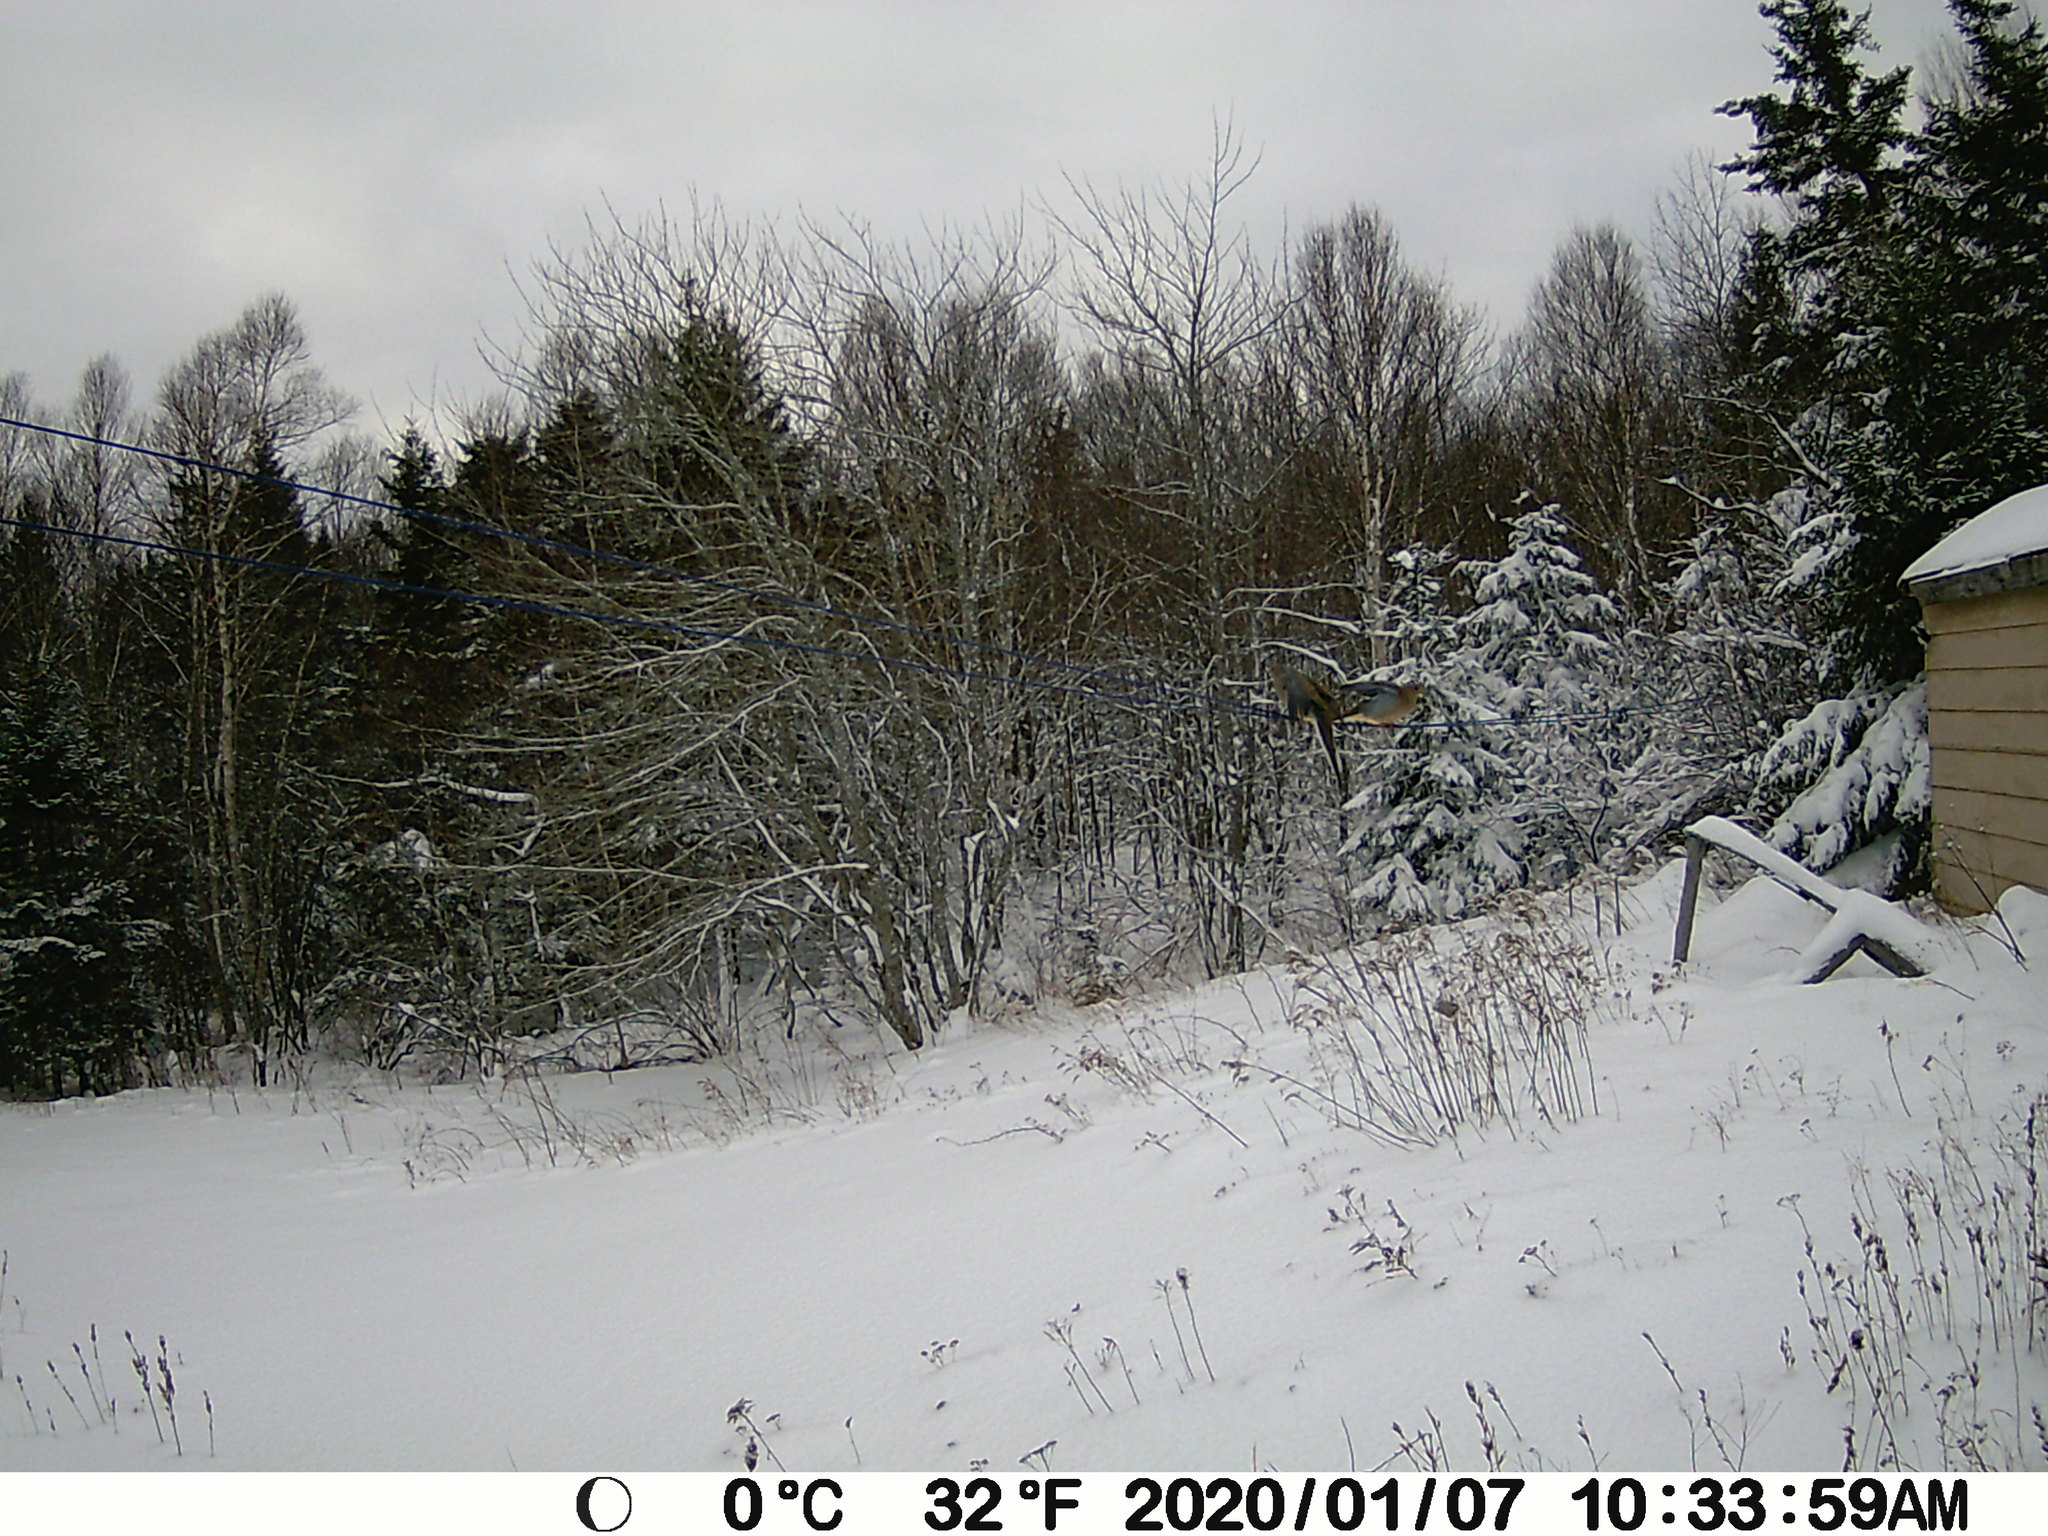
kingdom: Animalia
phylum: Chordata
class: Aves
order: Columbiformes
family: Columbidae
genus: Zenaida
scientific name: Zenaida macroura
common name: Mourning dove
